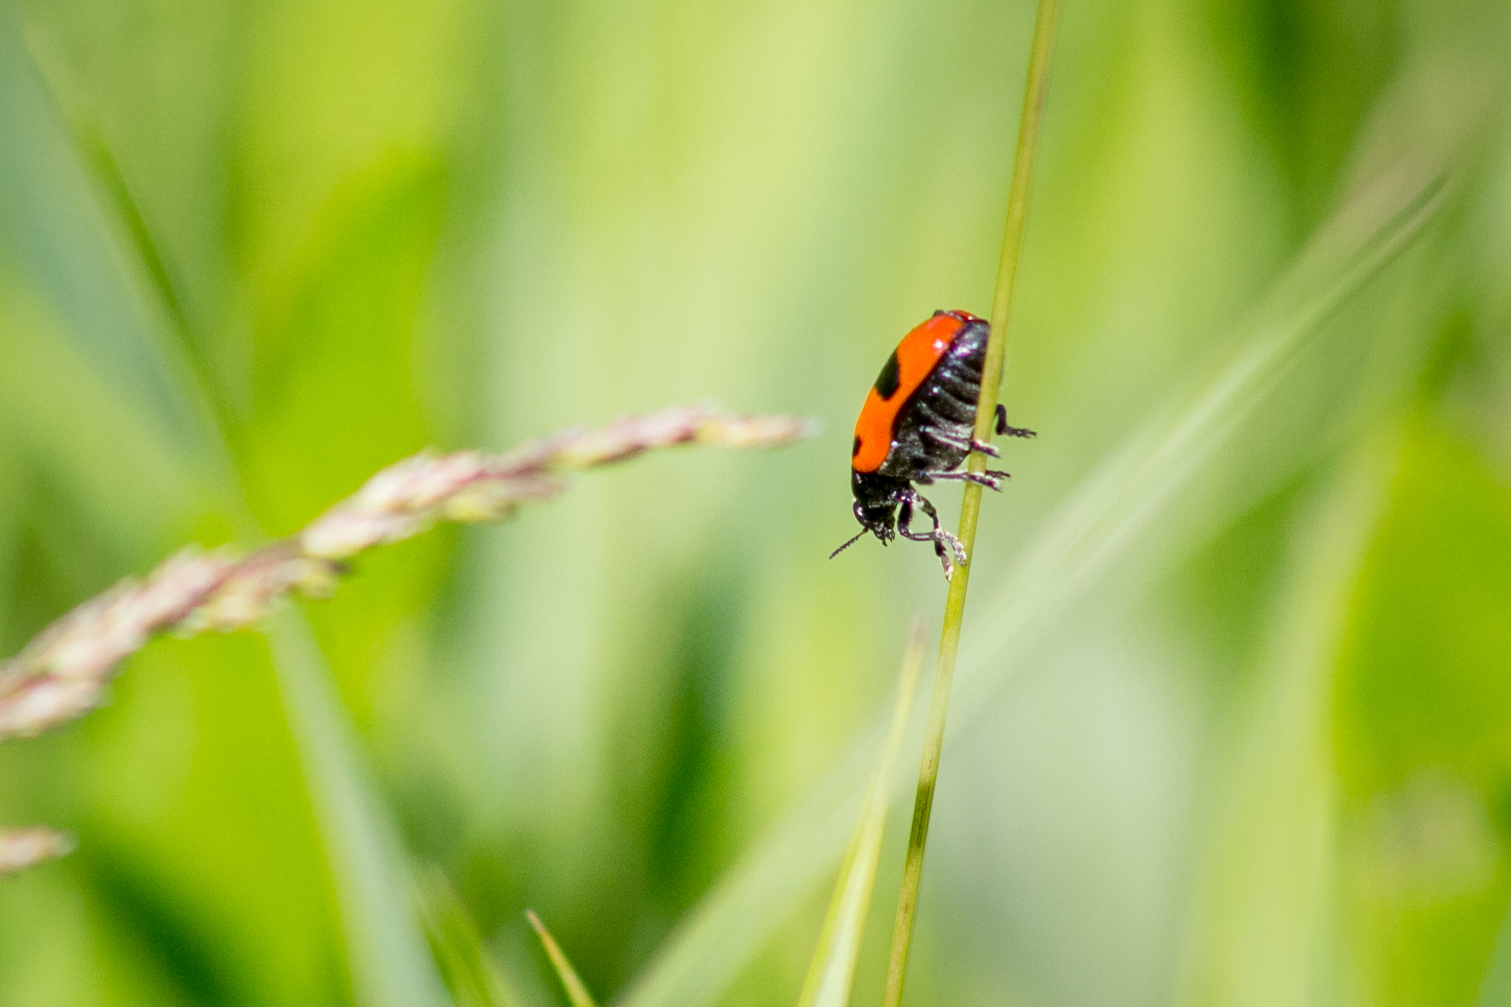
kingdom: Animalia
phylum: Arthropoda
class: Insecta
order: Coleoptera
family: Chrysomelidae
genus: Clytra
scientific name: Clytra laeviuscula
